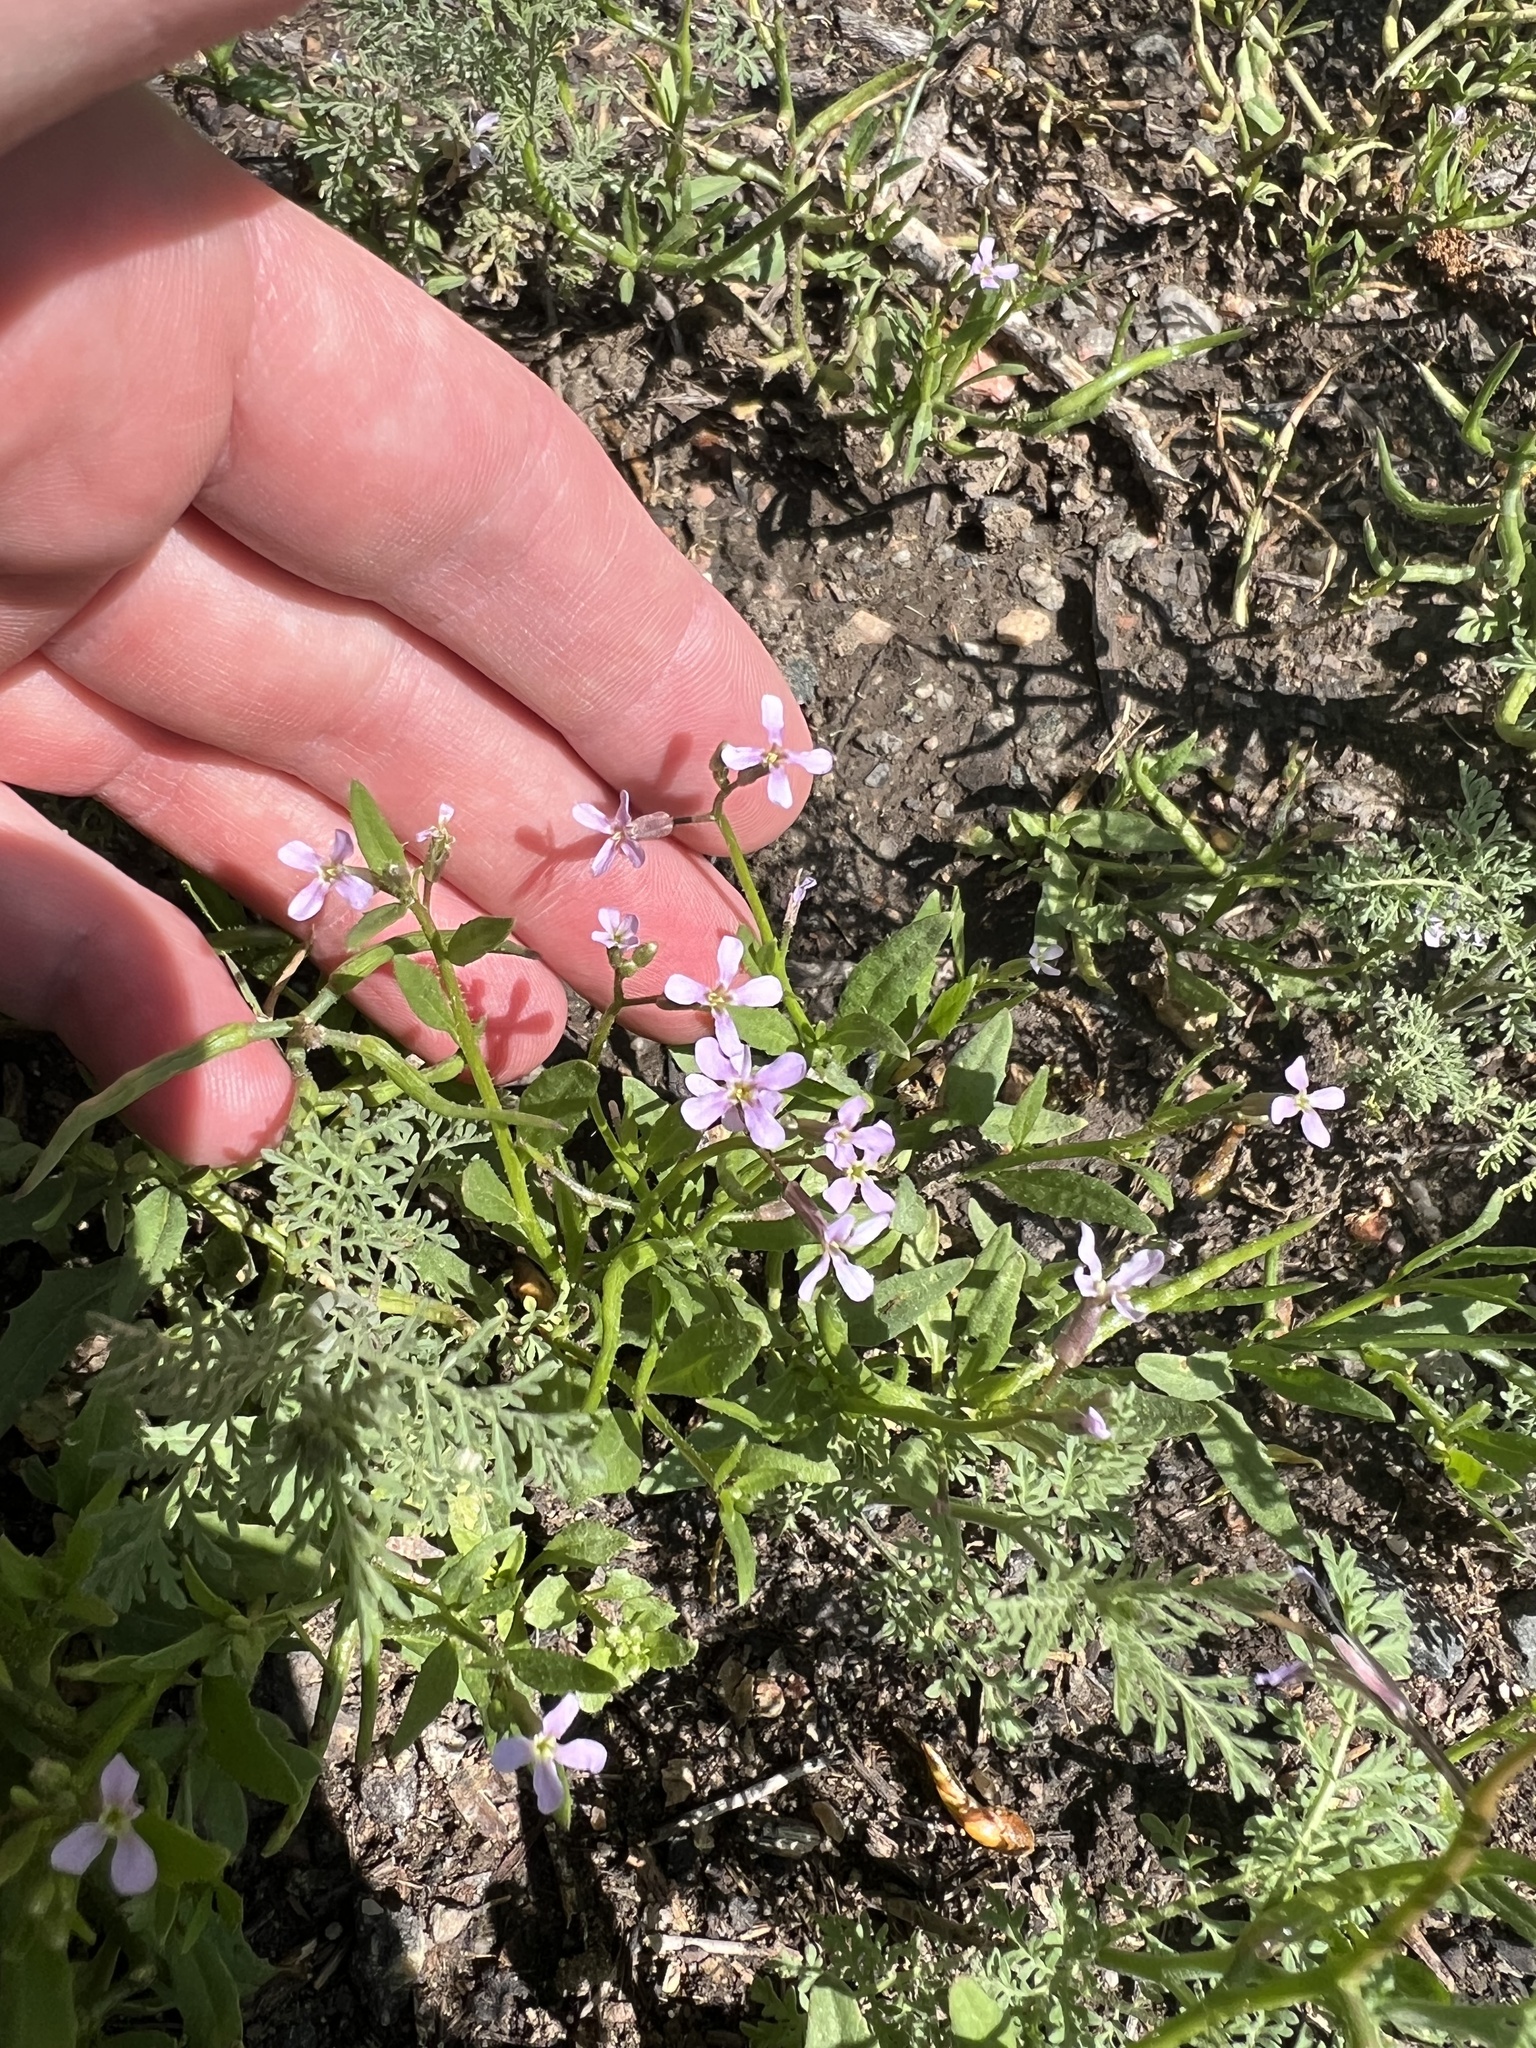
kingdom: Plantae
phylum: Tracheophyta
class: Magnoliopsida
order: Brassicales
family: Brassicaceae
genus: Chorispora
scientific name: Chorispora tenella
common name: Crossflower
